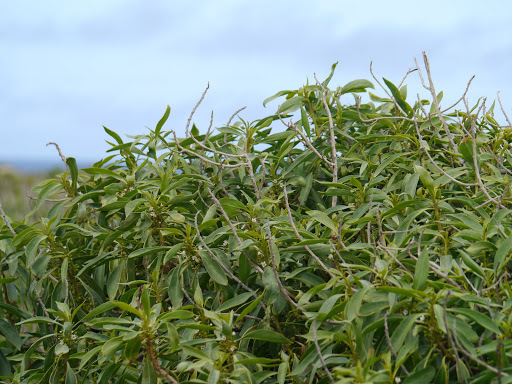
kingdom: Plantae
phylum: Tracheophyta
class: Magnoliopsida
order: Lamiales
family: Scrophulariaceae
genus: Myoporum
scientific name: Myoporum sandwicense
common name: Bastard-sandalwood
